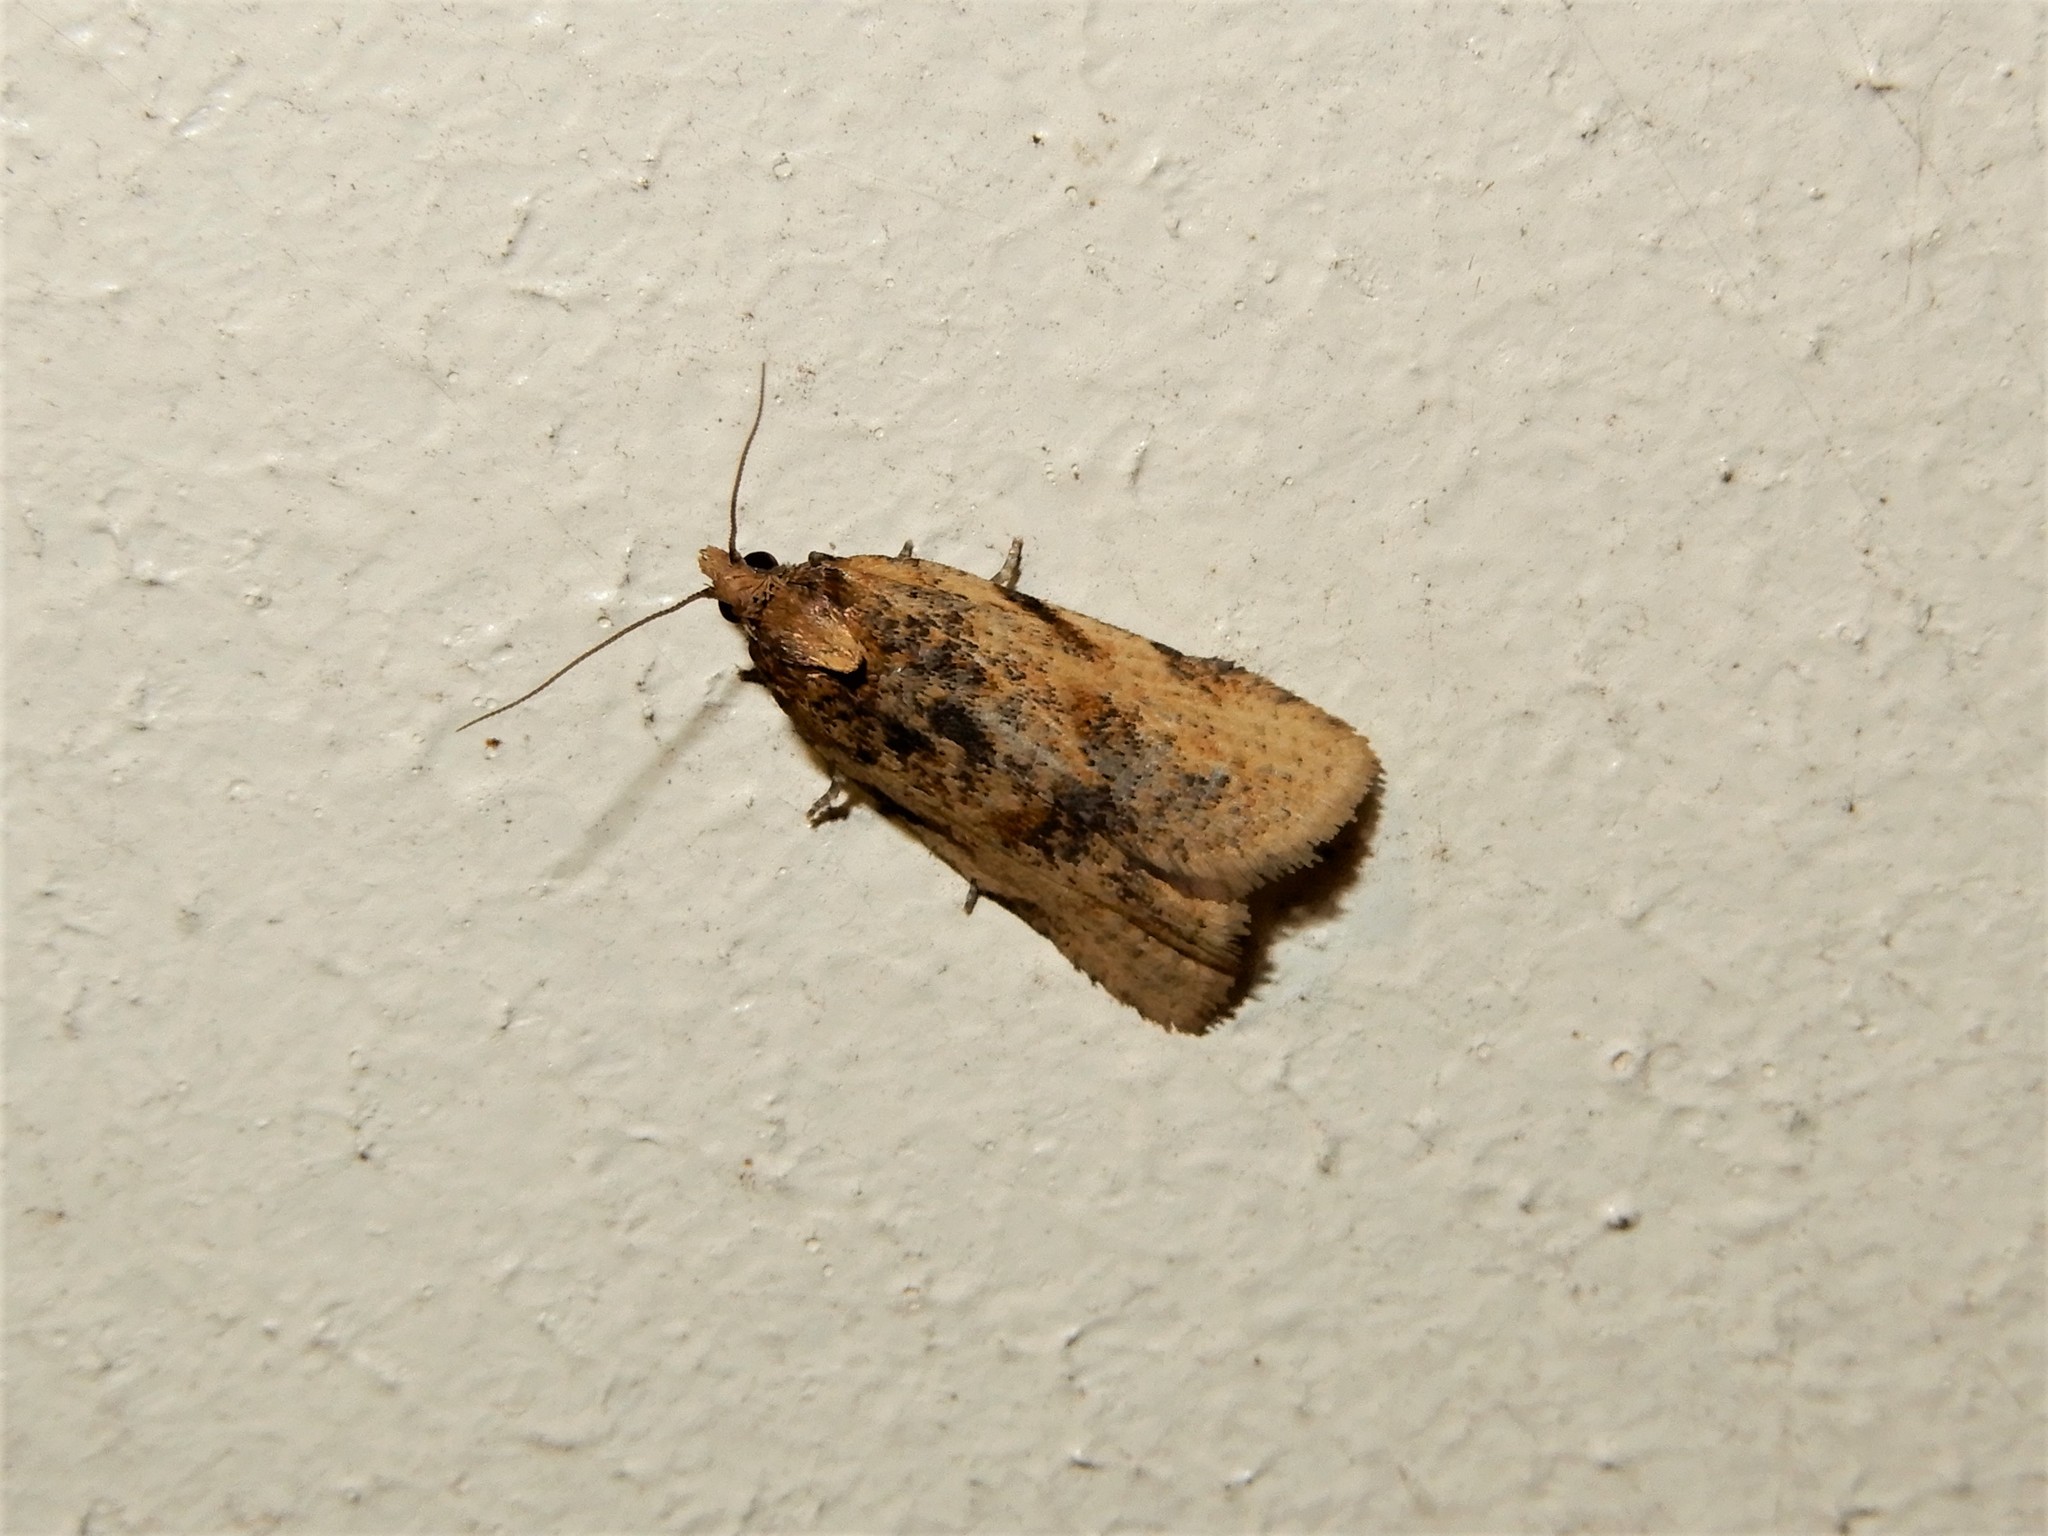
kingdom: Animalia
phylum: Arthropoda
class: Insecta
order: Lepidoptera
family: Tortricidae
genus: Clepsis
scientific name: Clepsis
